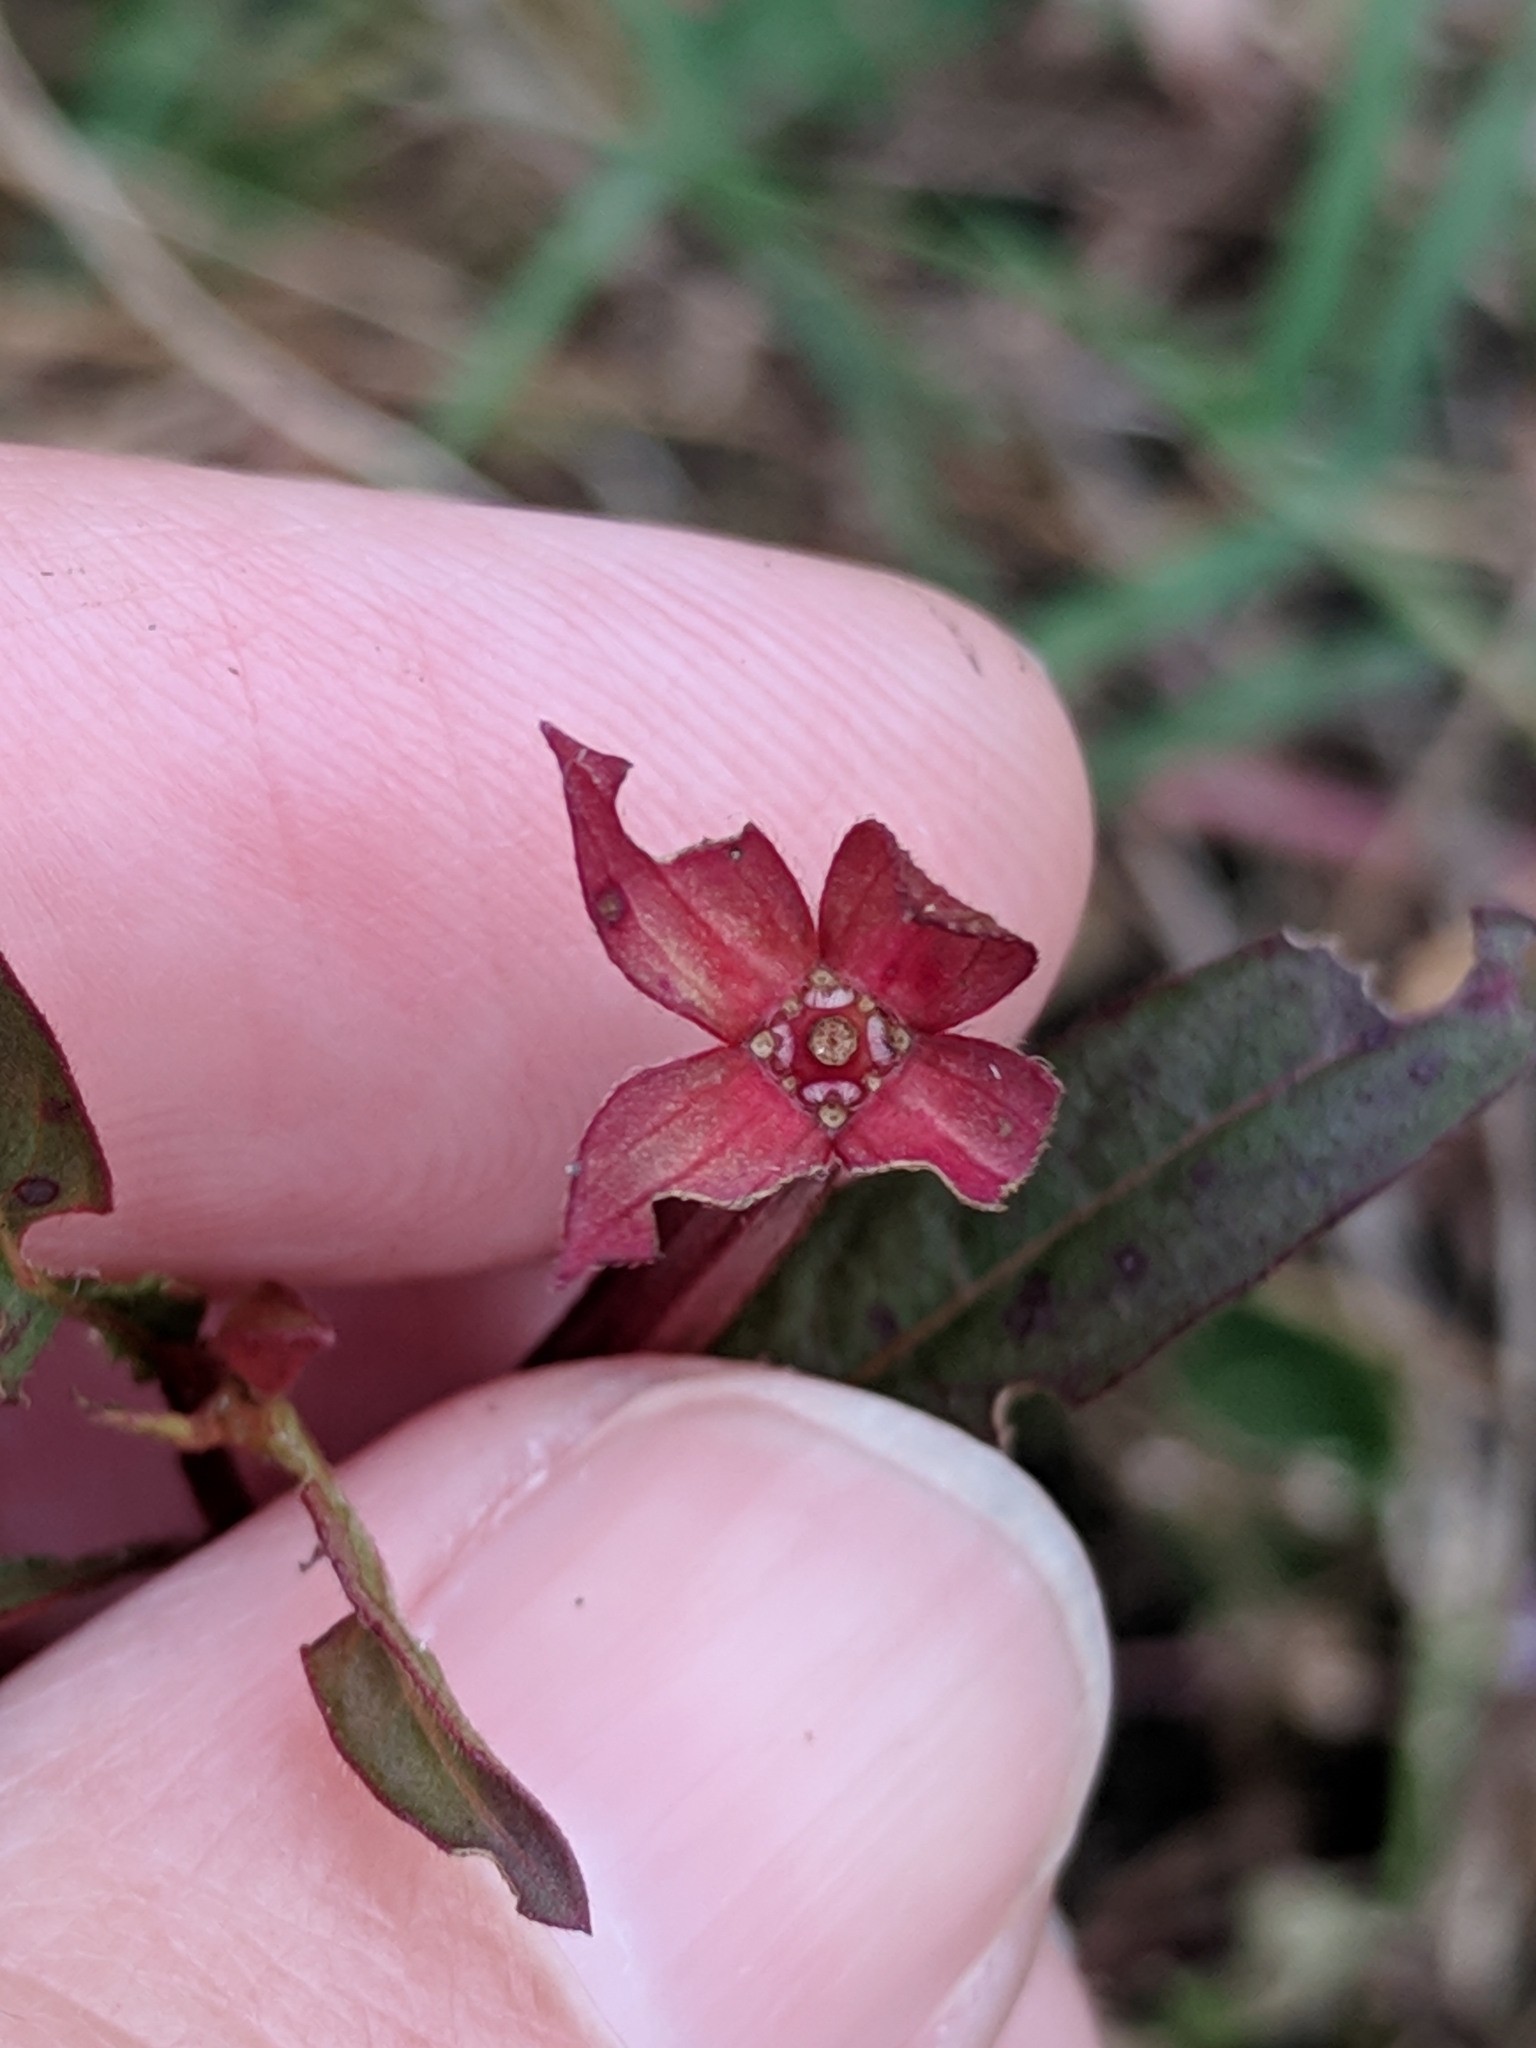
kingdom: Plantae
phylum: Tracheophyta
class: Magnoliopsida
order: Myrtales
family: Onagraceae
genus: Ludwigia
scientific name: Ludwigia octovalvis
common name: Water-primrose
